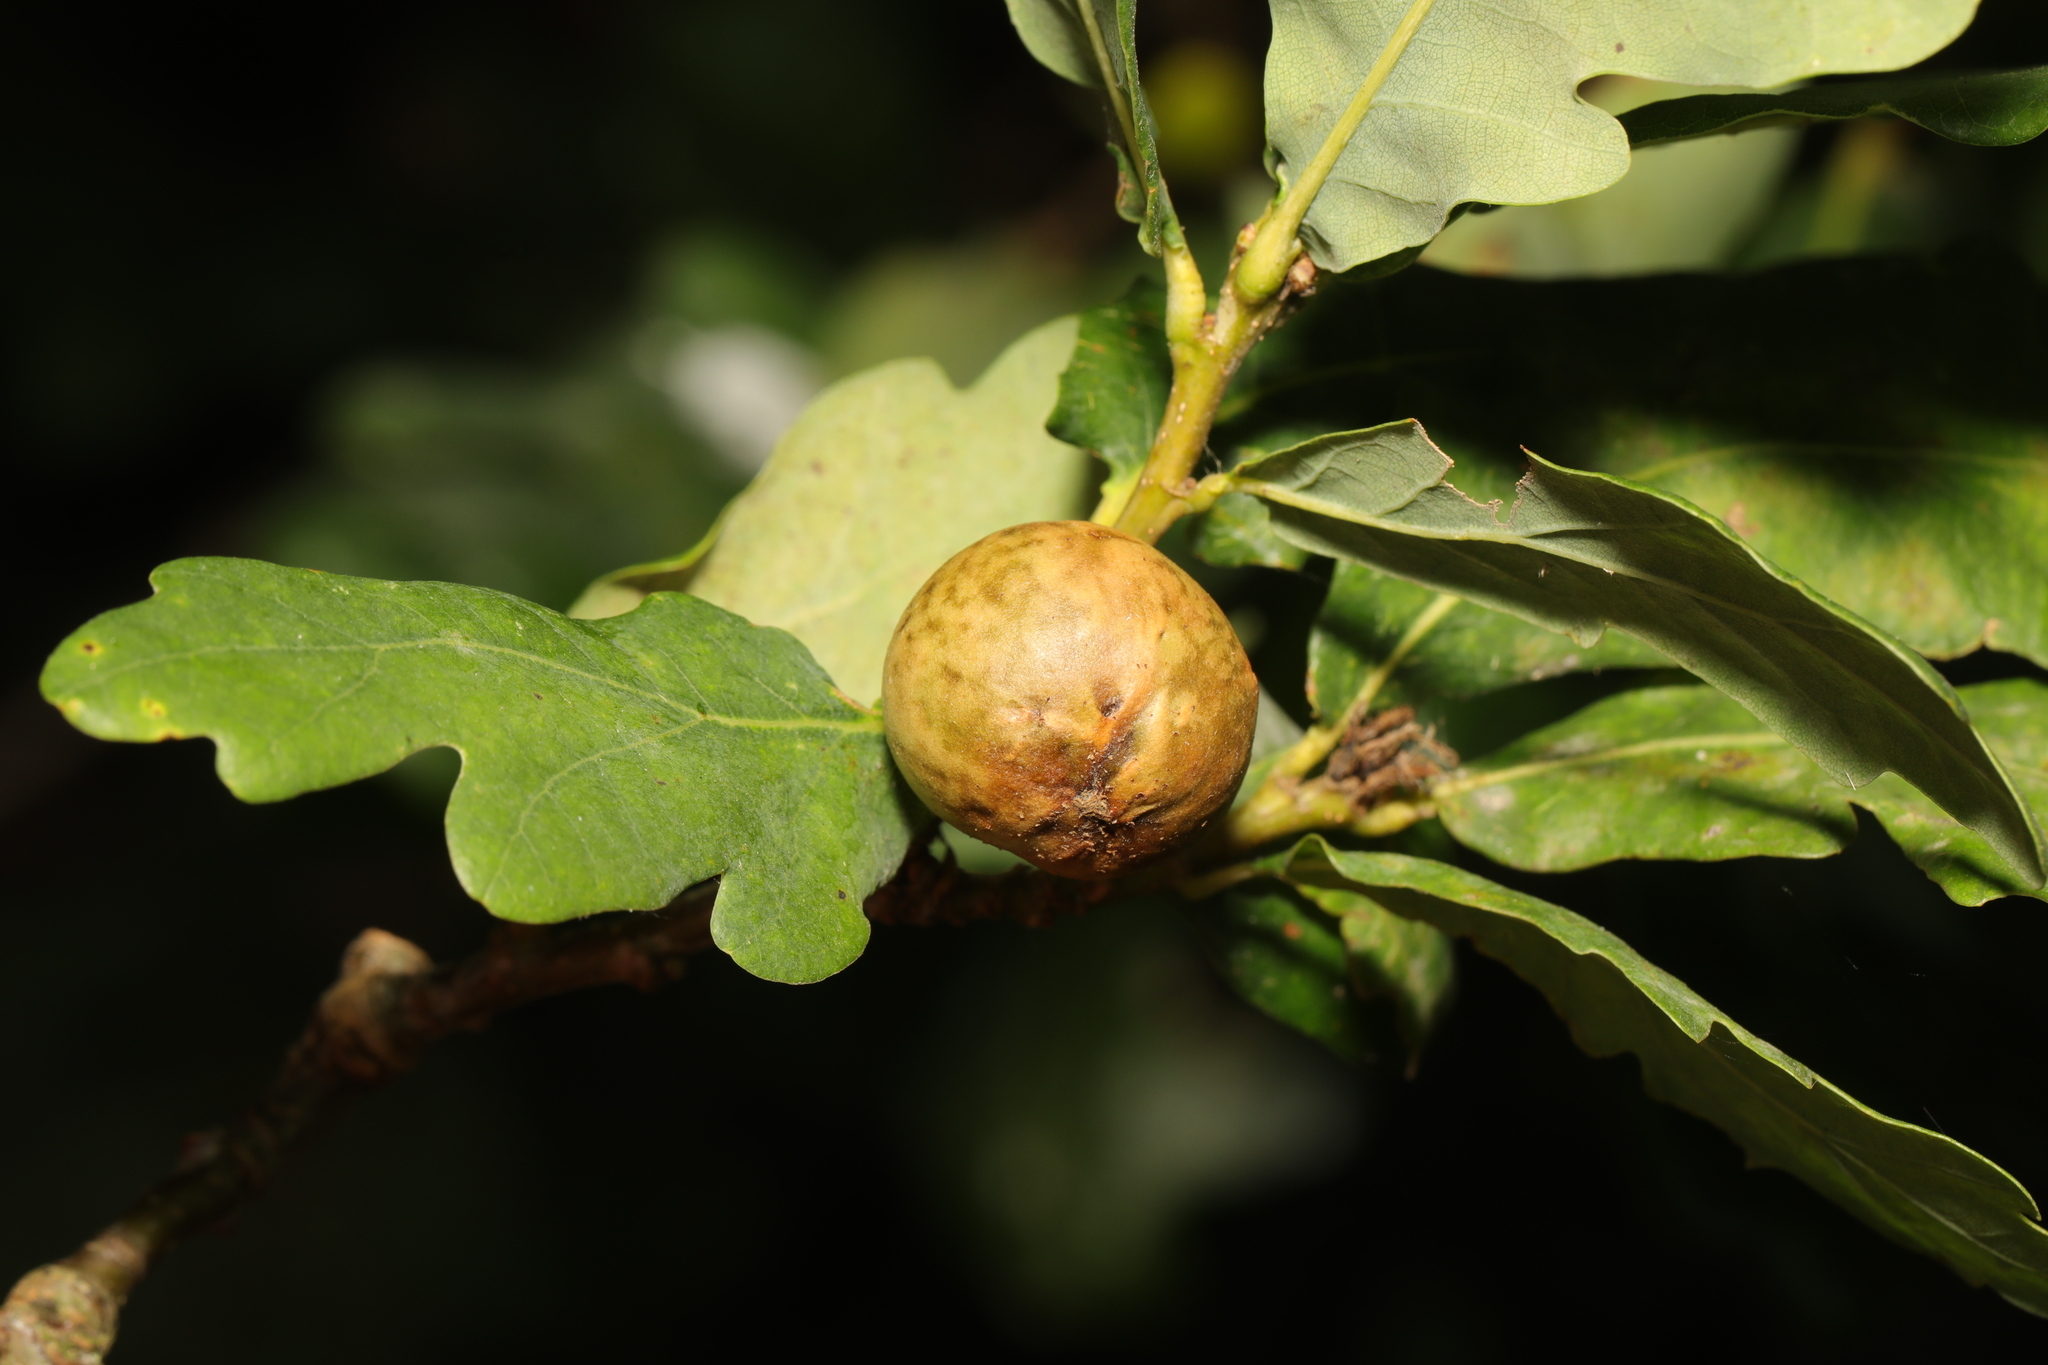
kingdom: Animalia
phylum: Arthropoda
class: Insecta
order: Hymenoptera
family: Cynipidae
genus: Andricus
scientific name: Andricus kollari
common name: Marble gall
